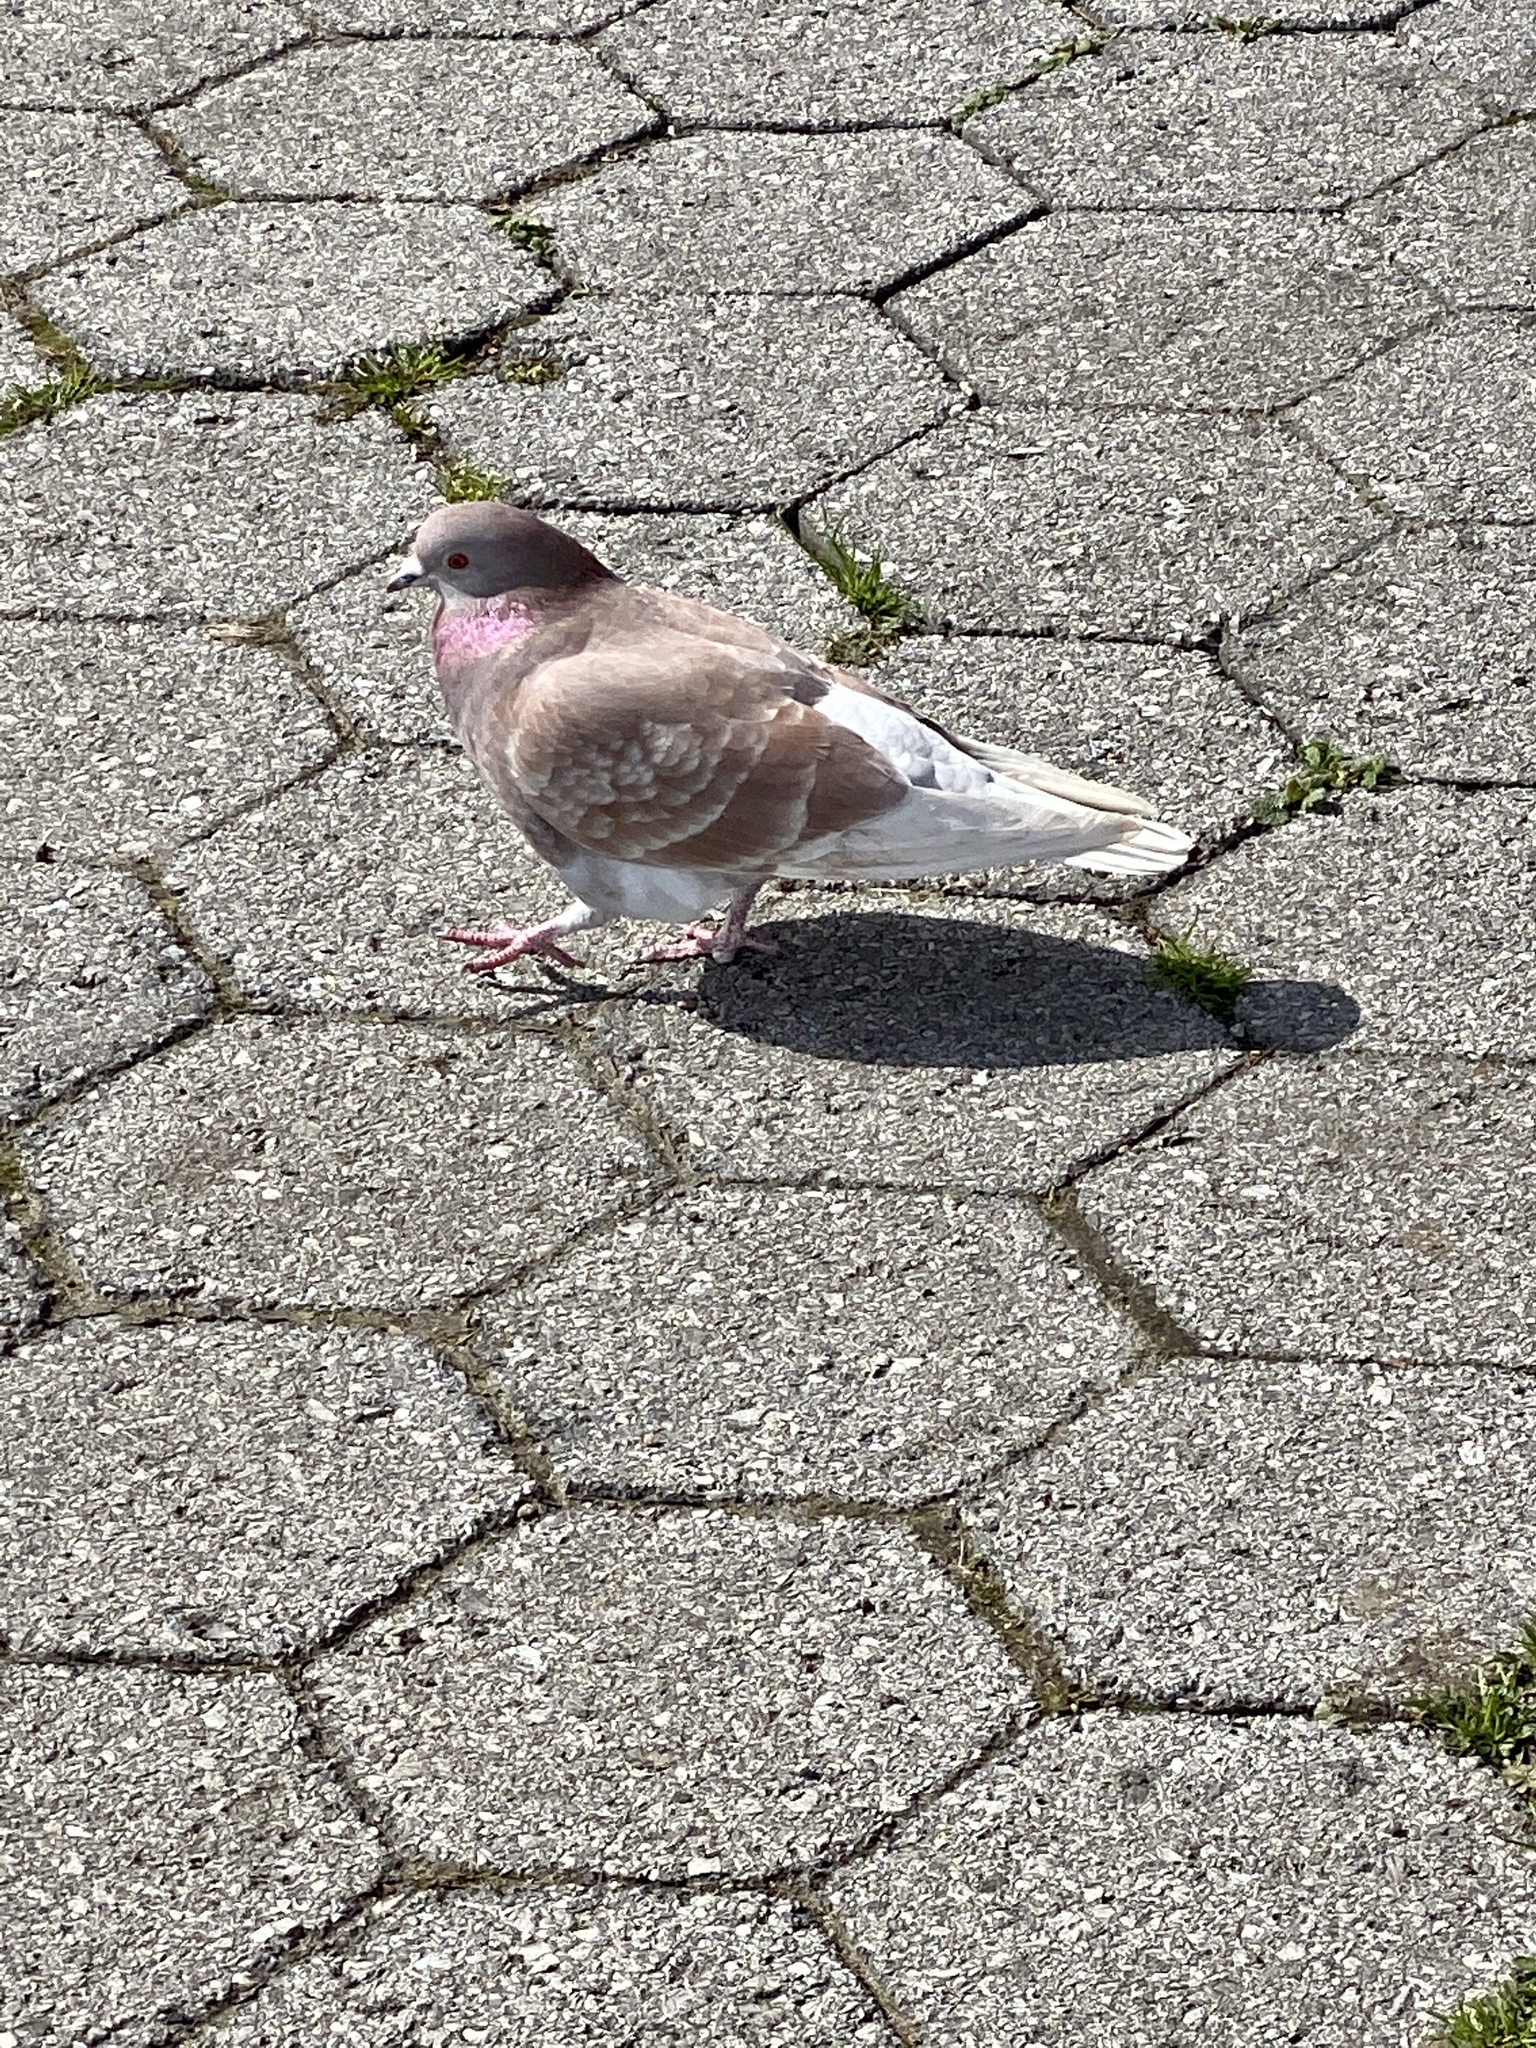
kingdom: Animalia
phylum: Chordata
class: Aves
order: Columbiformes
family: Columbidae
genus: Columba
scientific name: Columba livia
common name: Rock pigeon
